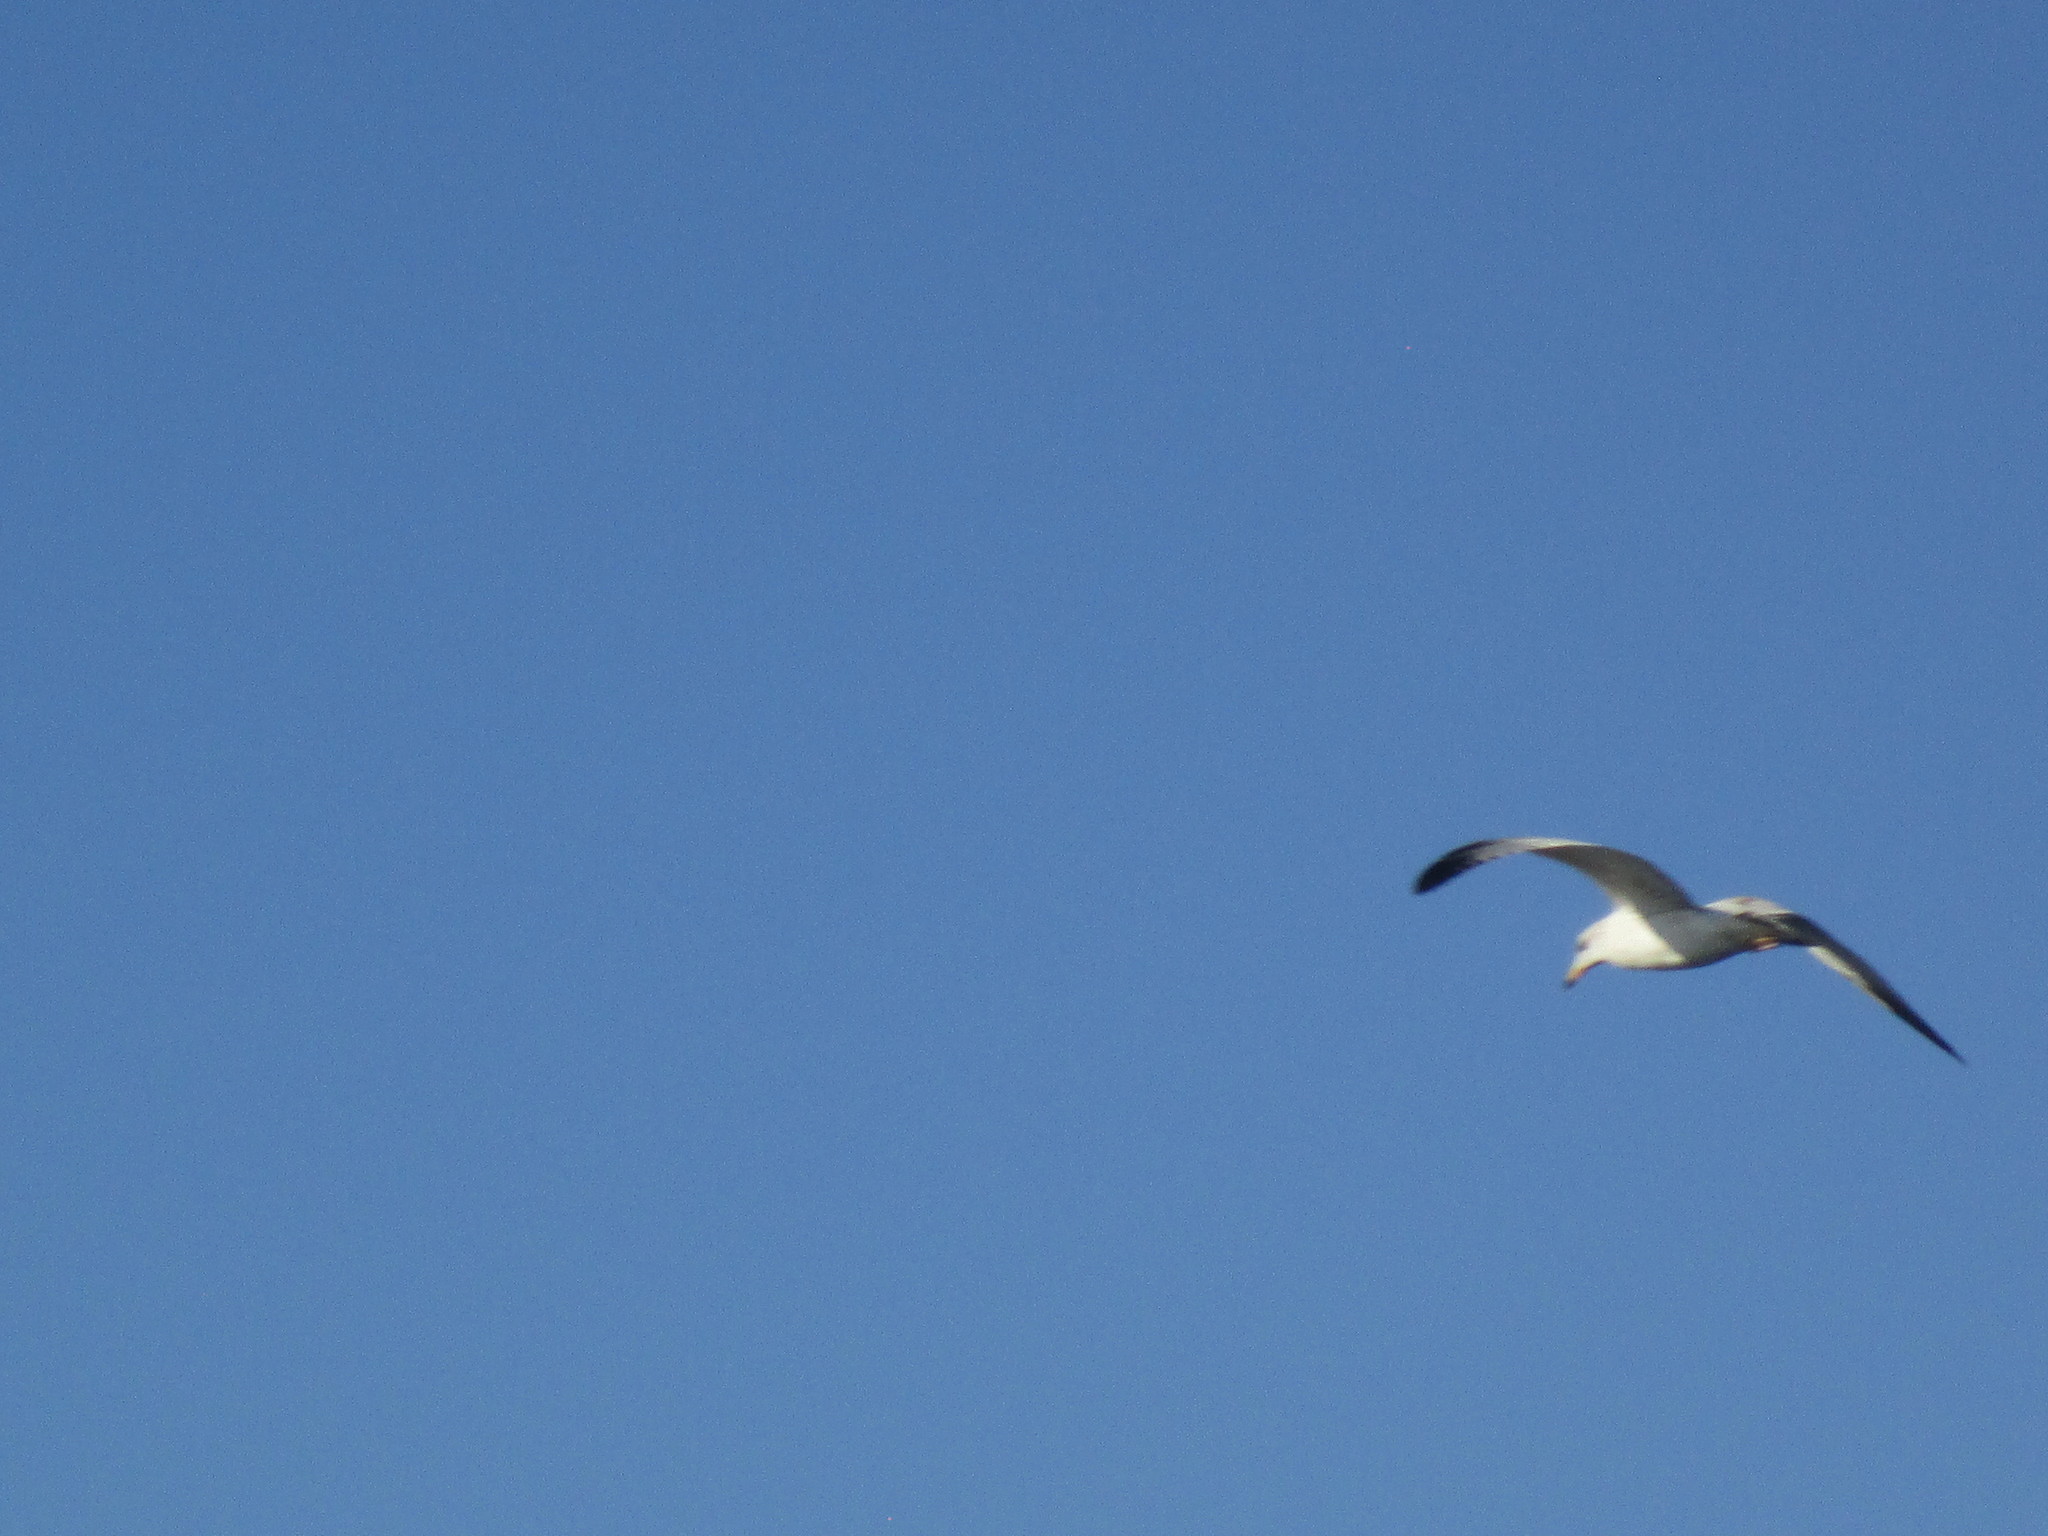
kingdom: Animalia
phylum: Chordata
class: Aves
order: Charadriiformes
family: Laridae
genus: Larus
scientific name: Larus delawarensis
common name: Ring-billed gull
